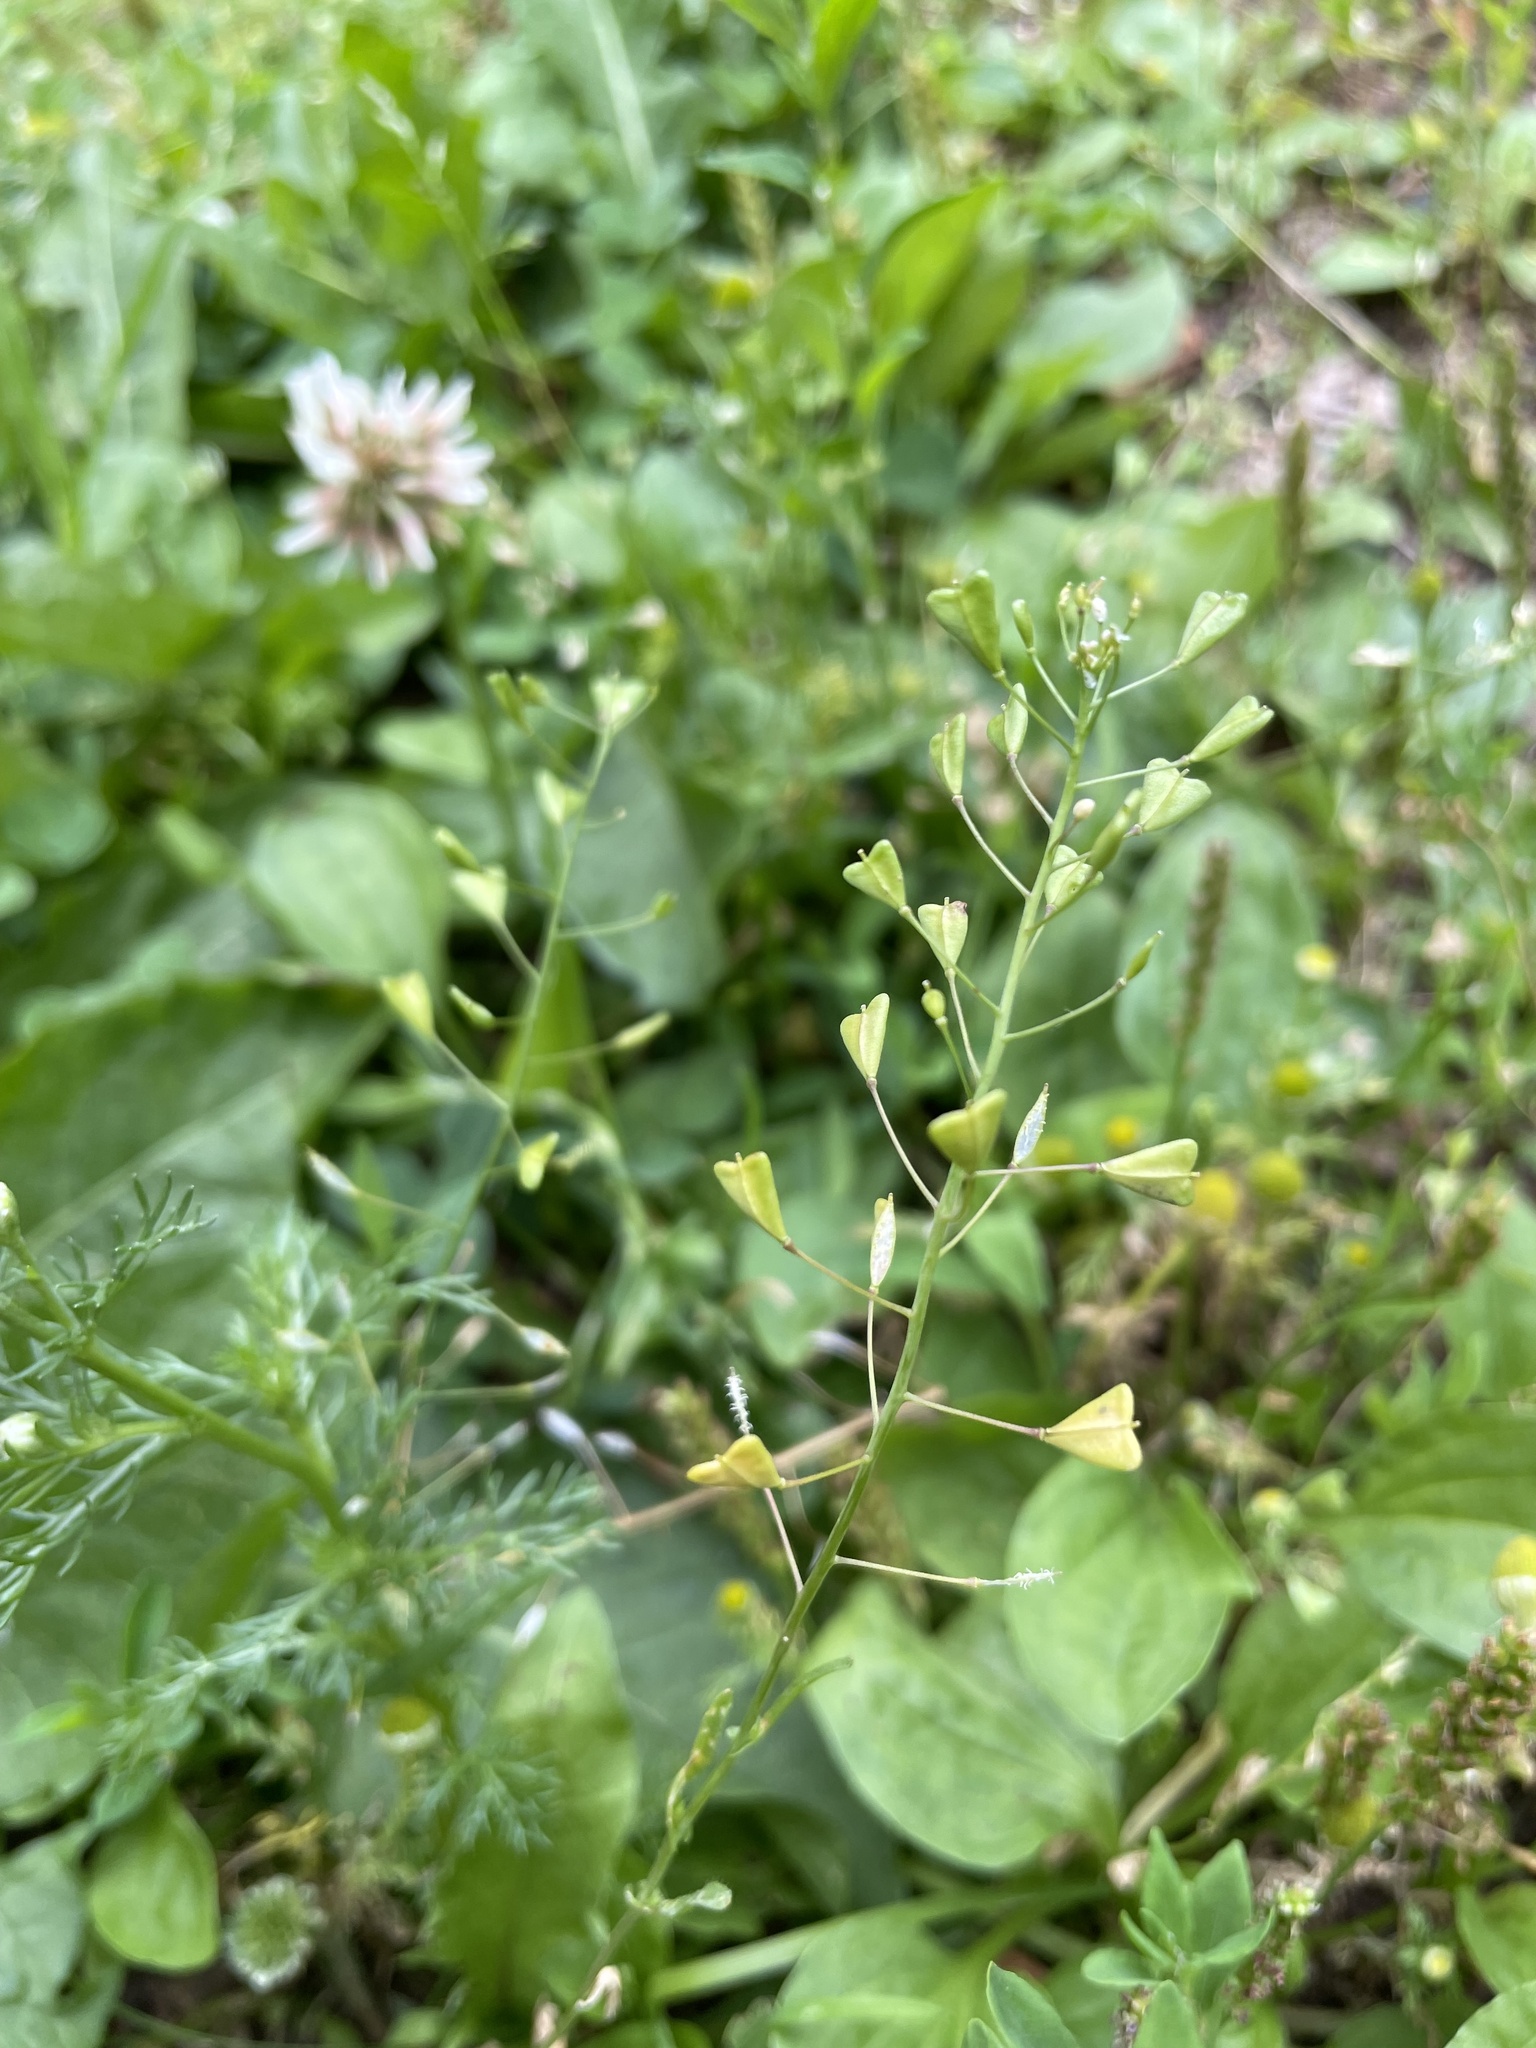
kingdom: Plantae
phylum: Tracheophyta
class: Magnoliopsida
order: Brassicales
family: Brassicaceae
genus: Capsella
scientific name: Capsella bursa-pastoris
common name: Shepherd's purse
